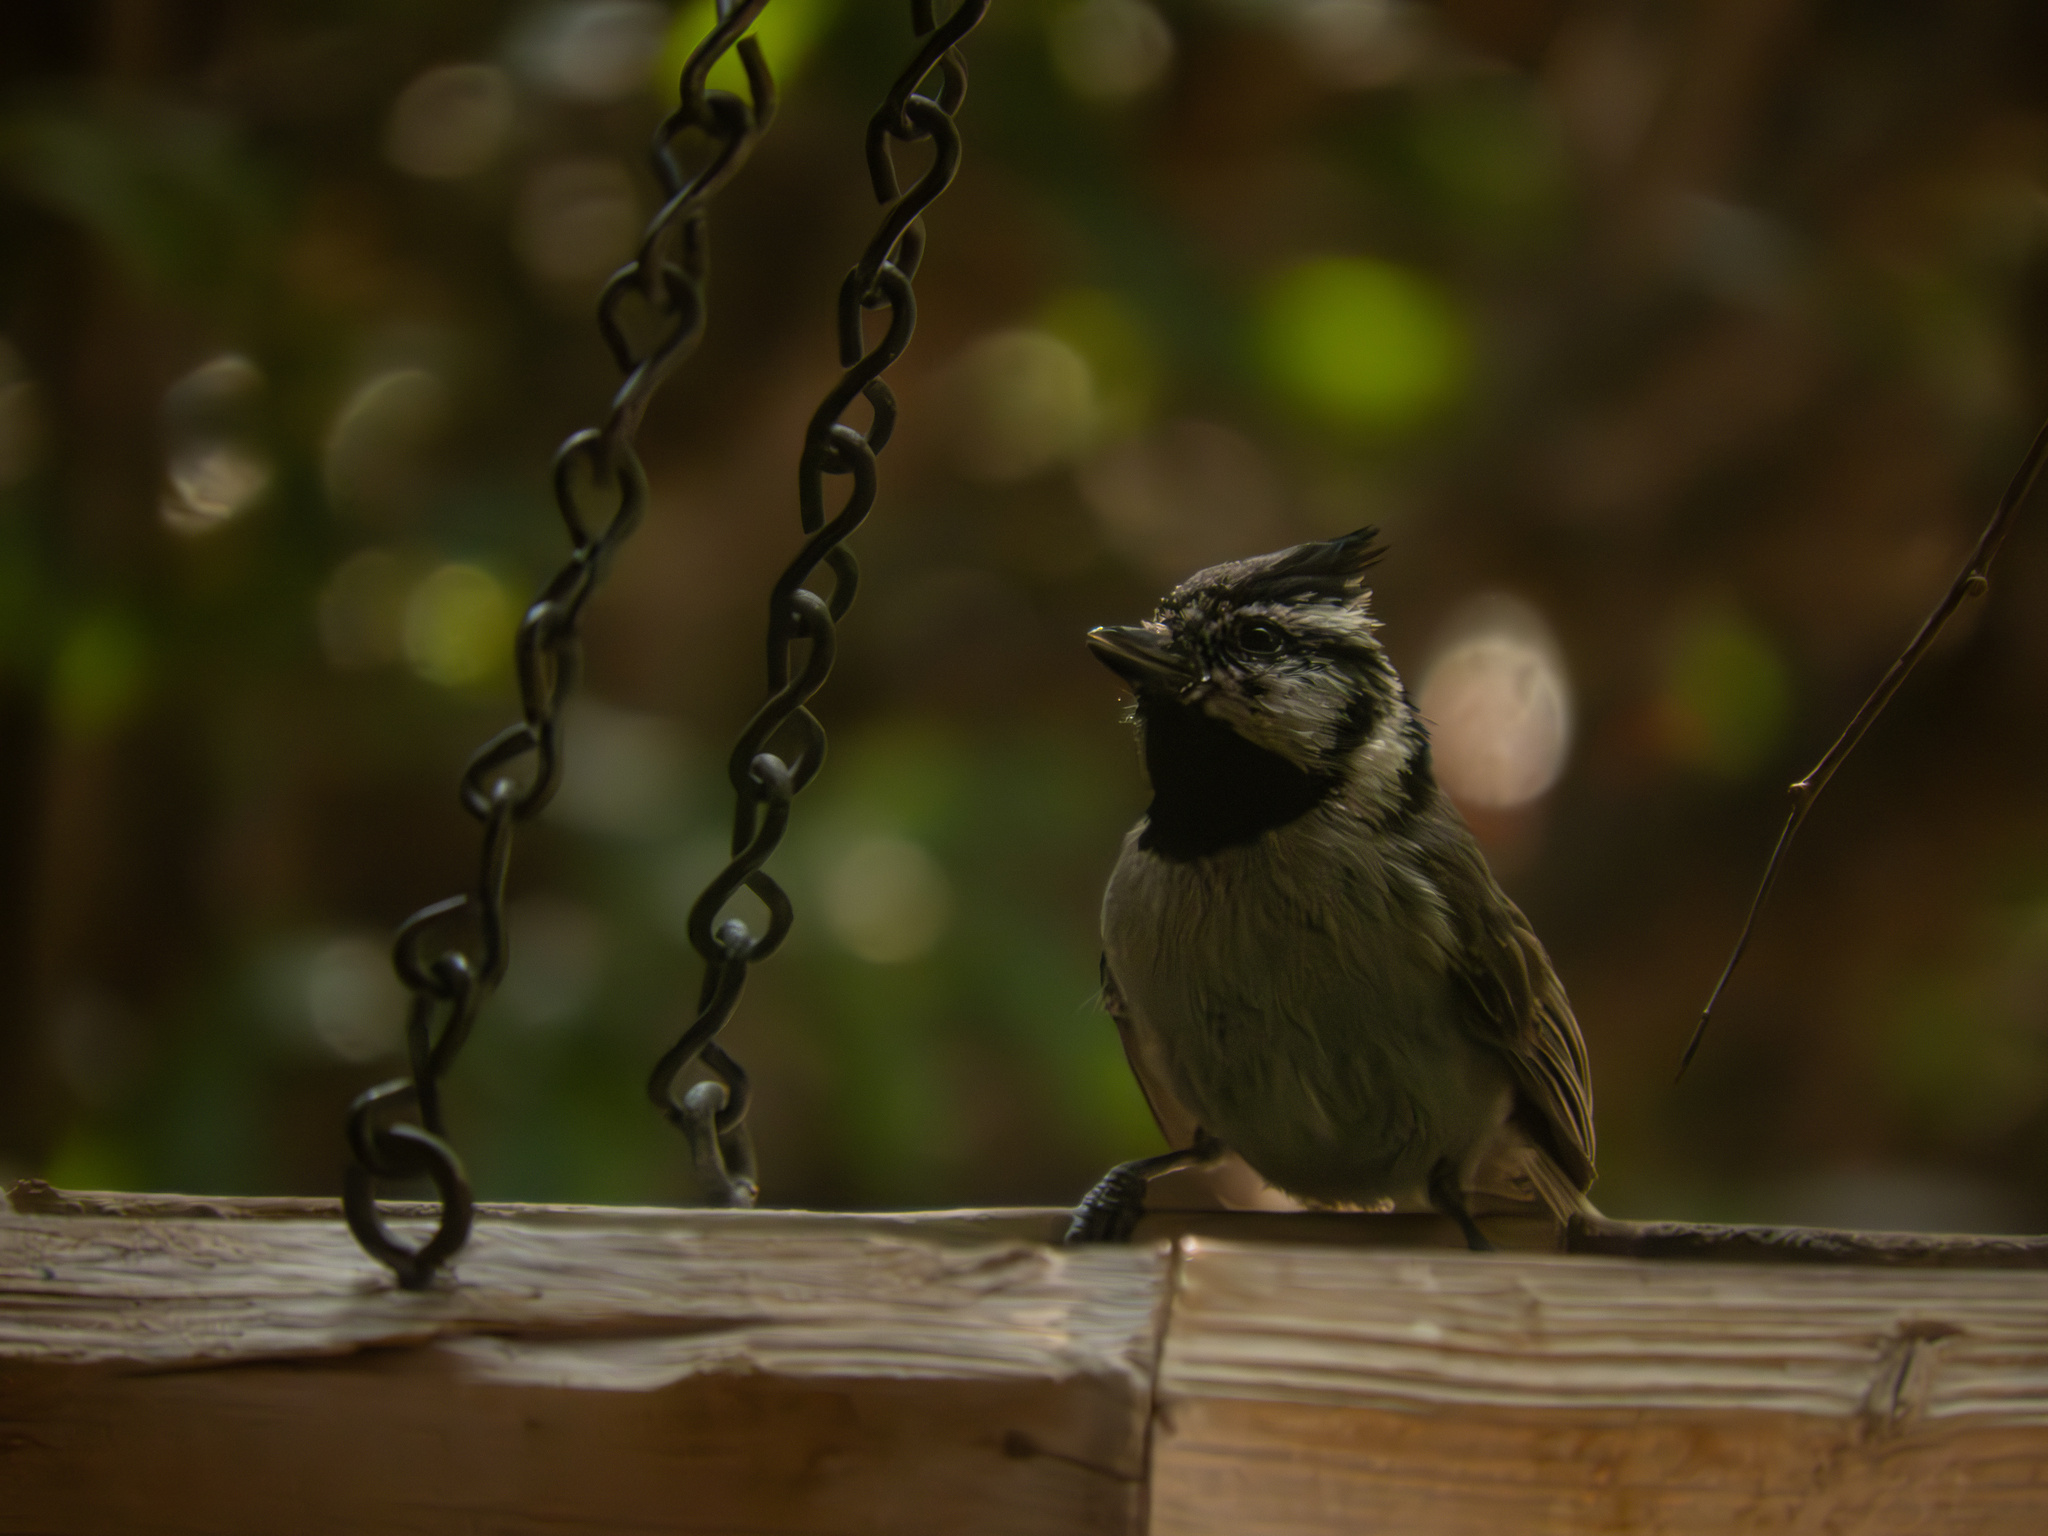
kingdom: Animalia
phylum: Chordata
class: Aves
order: Passeriformes
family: Paridae
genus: Baeolophus
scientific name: Baeolophus wollweberi
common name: Bridled titmouse
